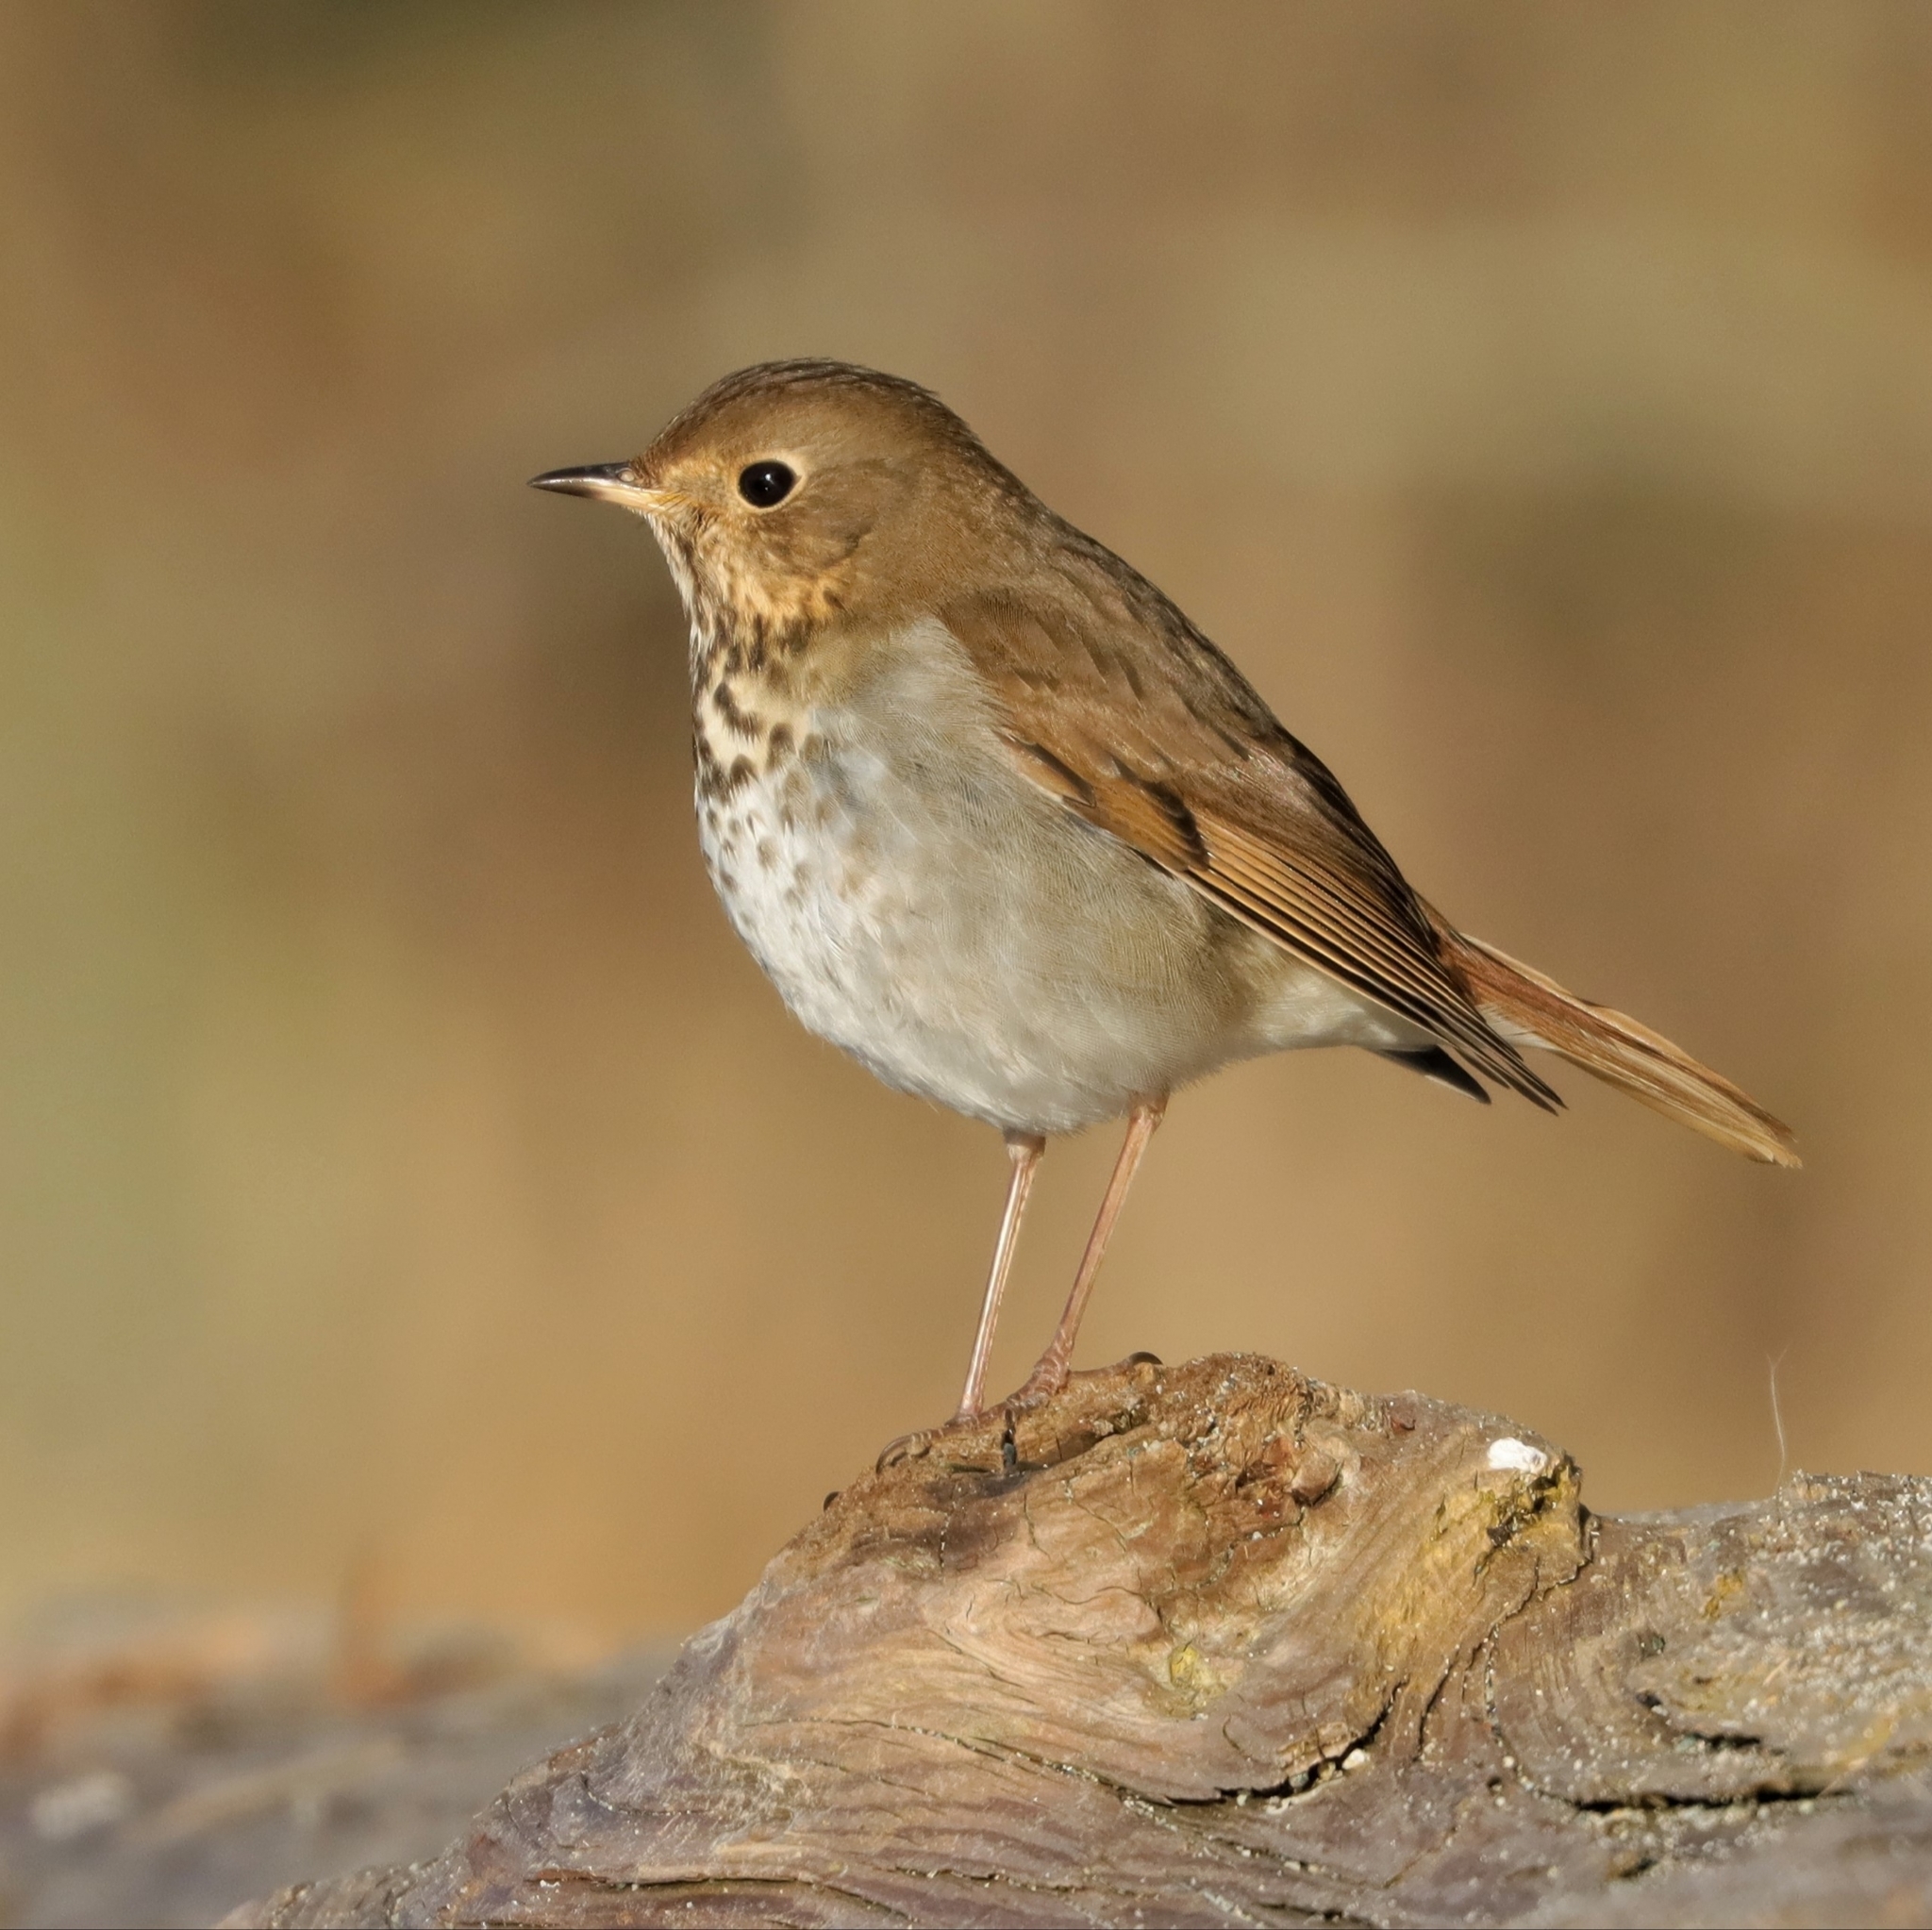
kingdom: Animalia
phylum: Chordata
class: Aves
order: Passeriformes
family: Turdidae
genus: Catharus
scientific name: Catharus guttatus
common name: Hermit thrush
